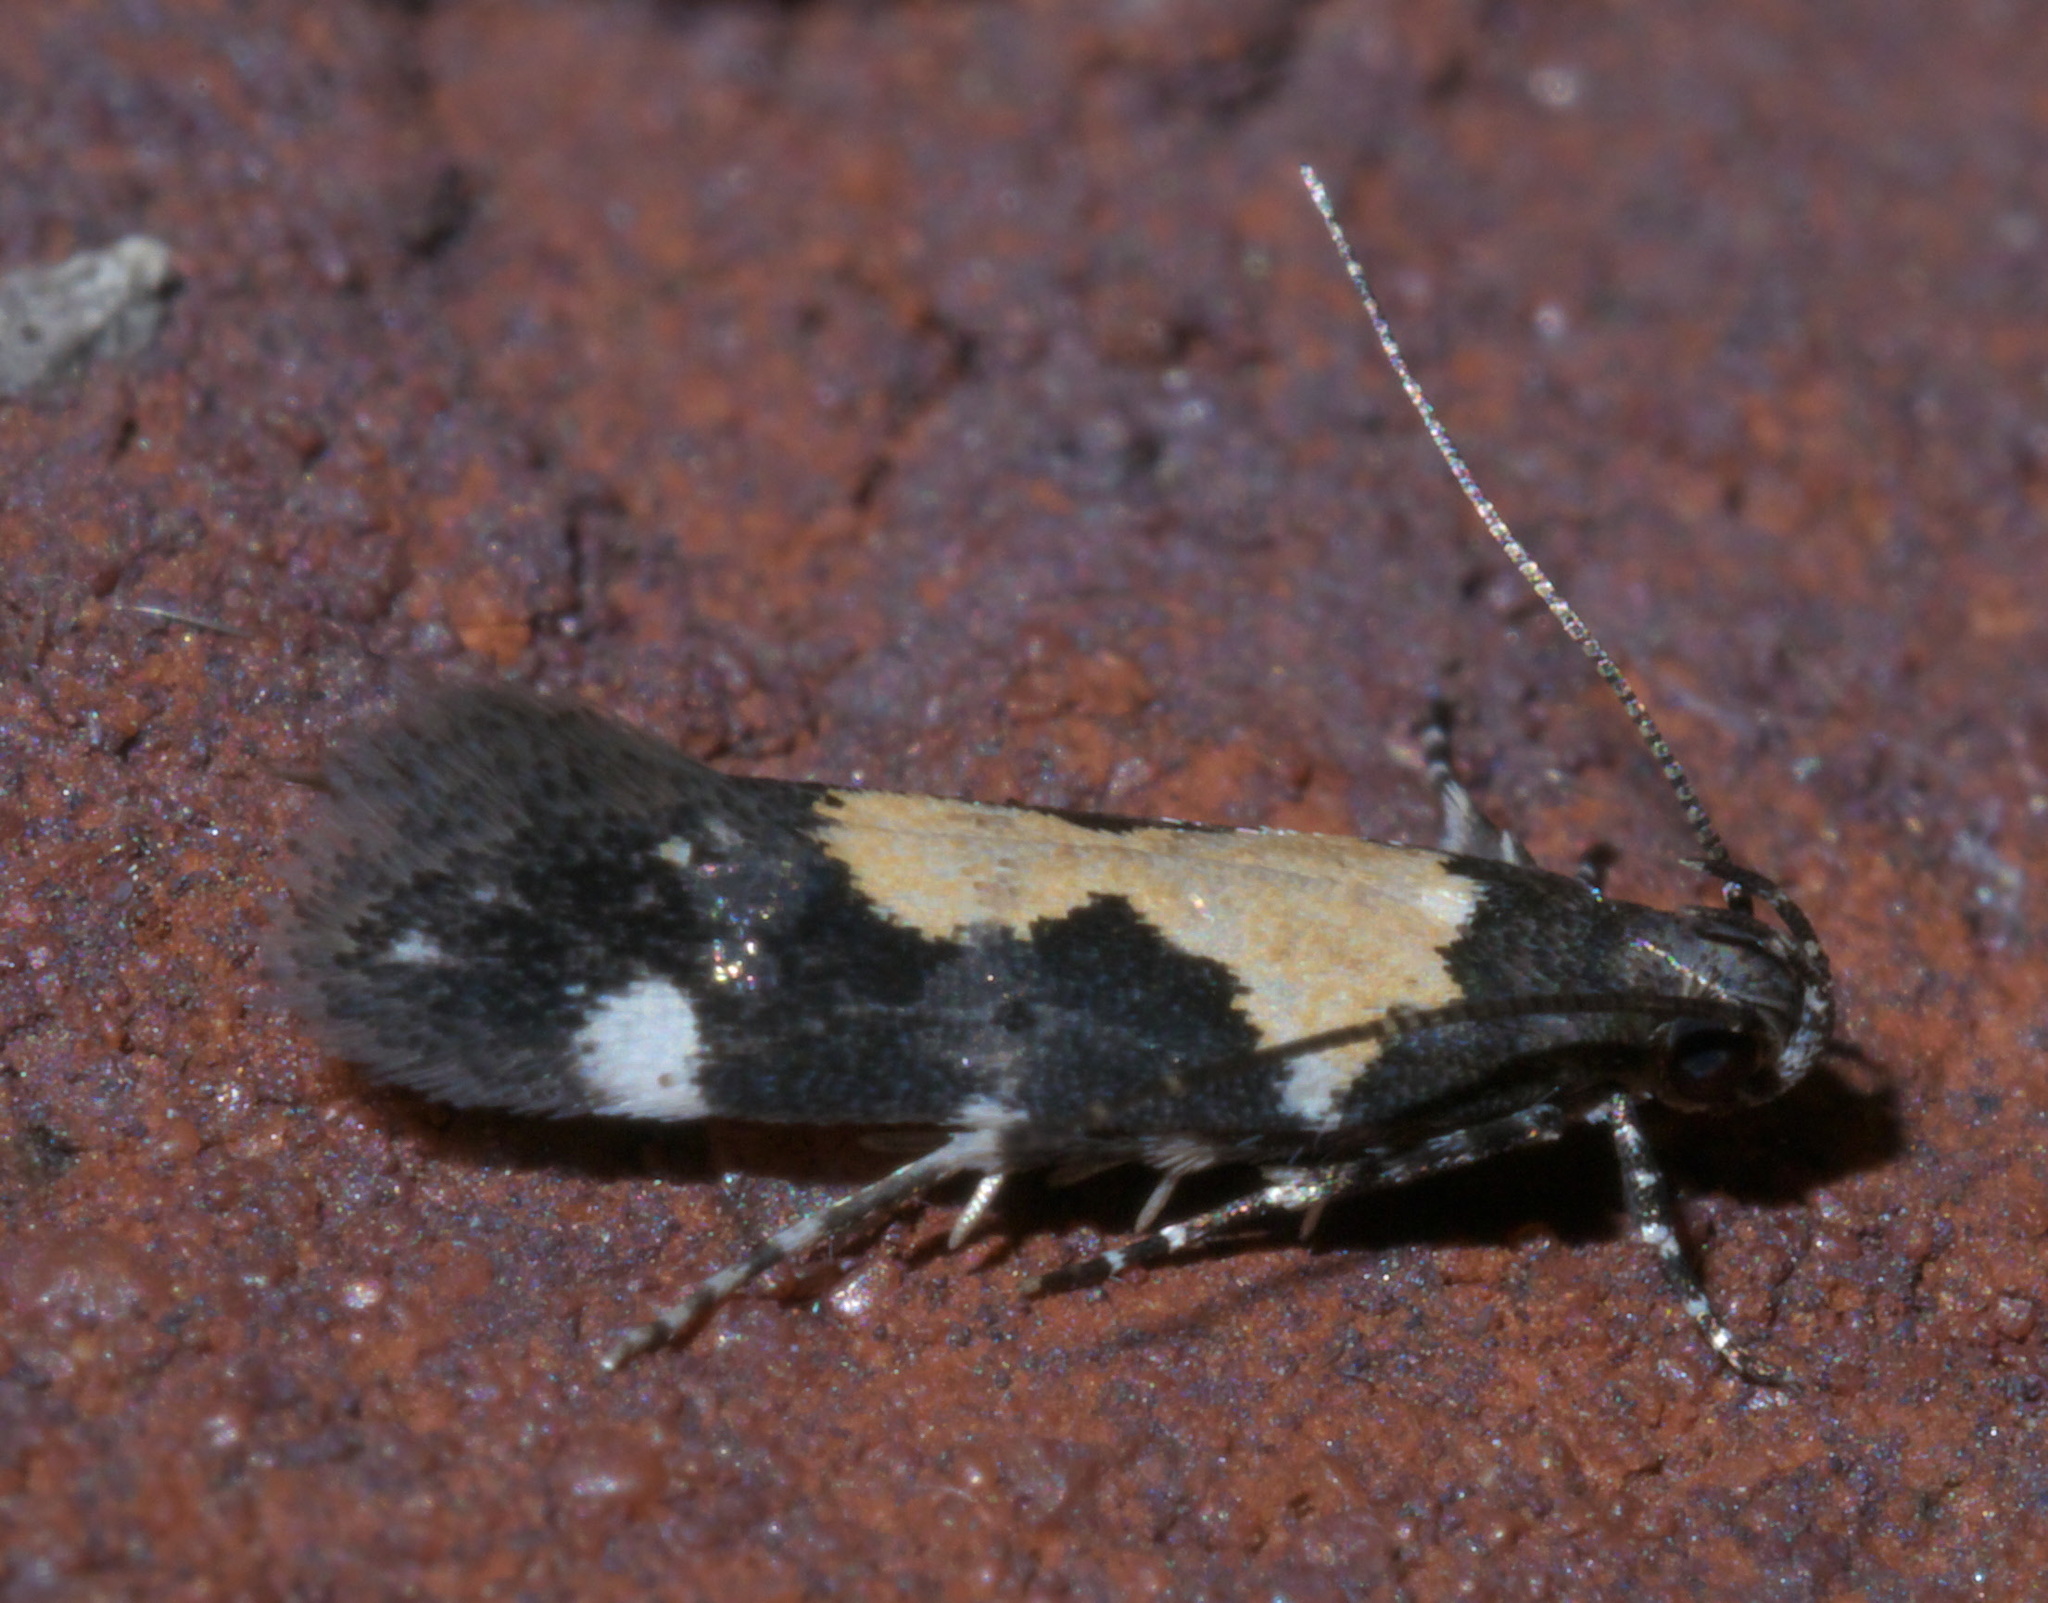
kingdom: Animalia
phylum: Arthropoda
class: Insecta
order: Lepidoptera
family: Gelechiidae
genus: Stegasta
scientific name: Stegasta bosqueella
